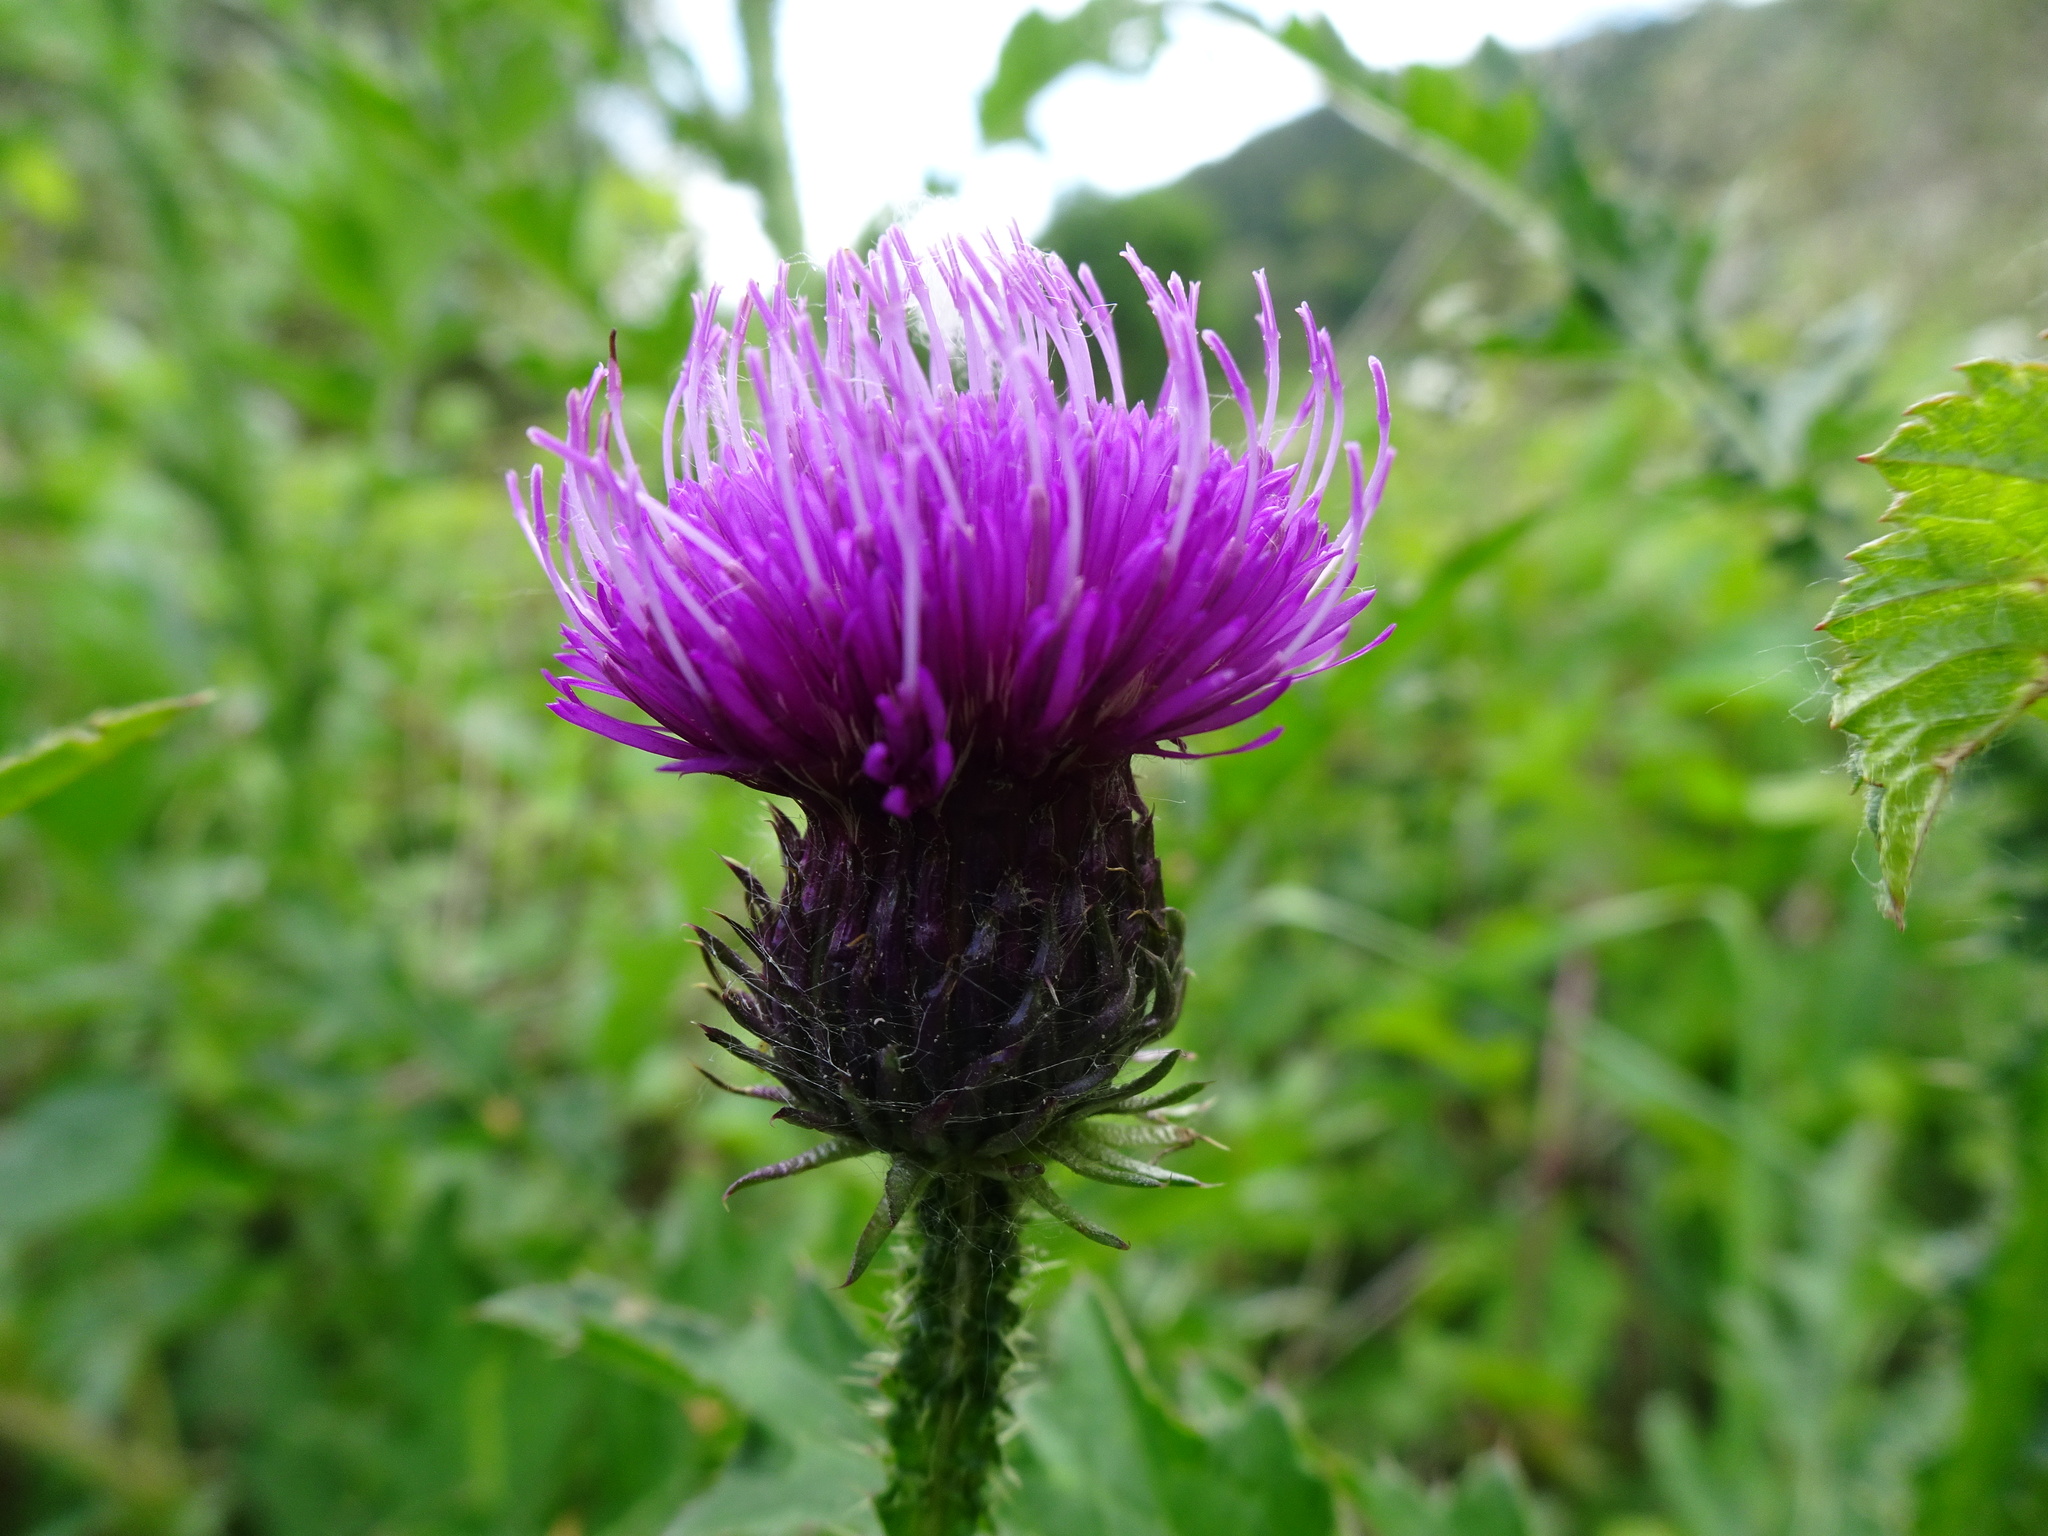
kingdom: Plantae
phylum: Tracheophyta
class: Magnoliopsida
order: Asterales
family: Asteraceae
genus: Carduus
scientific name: Carduus crispus
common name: Welted thistle
